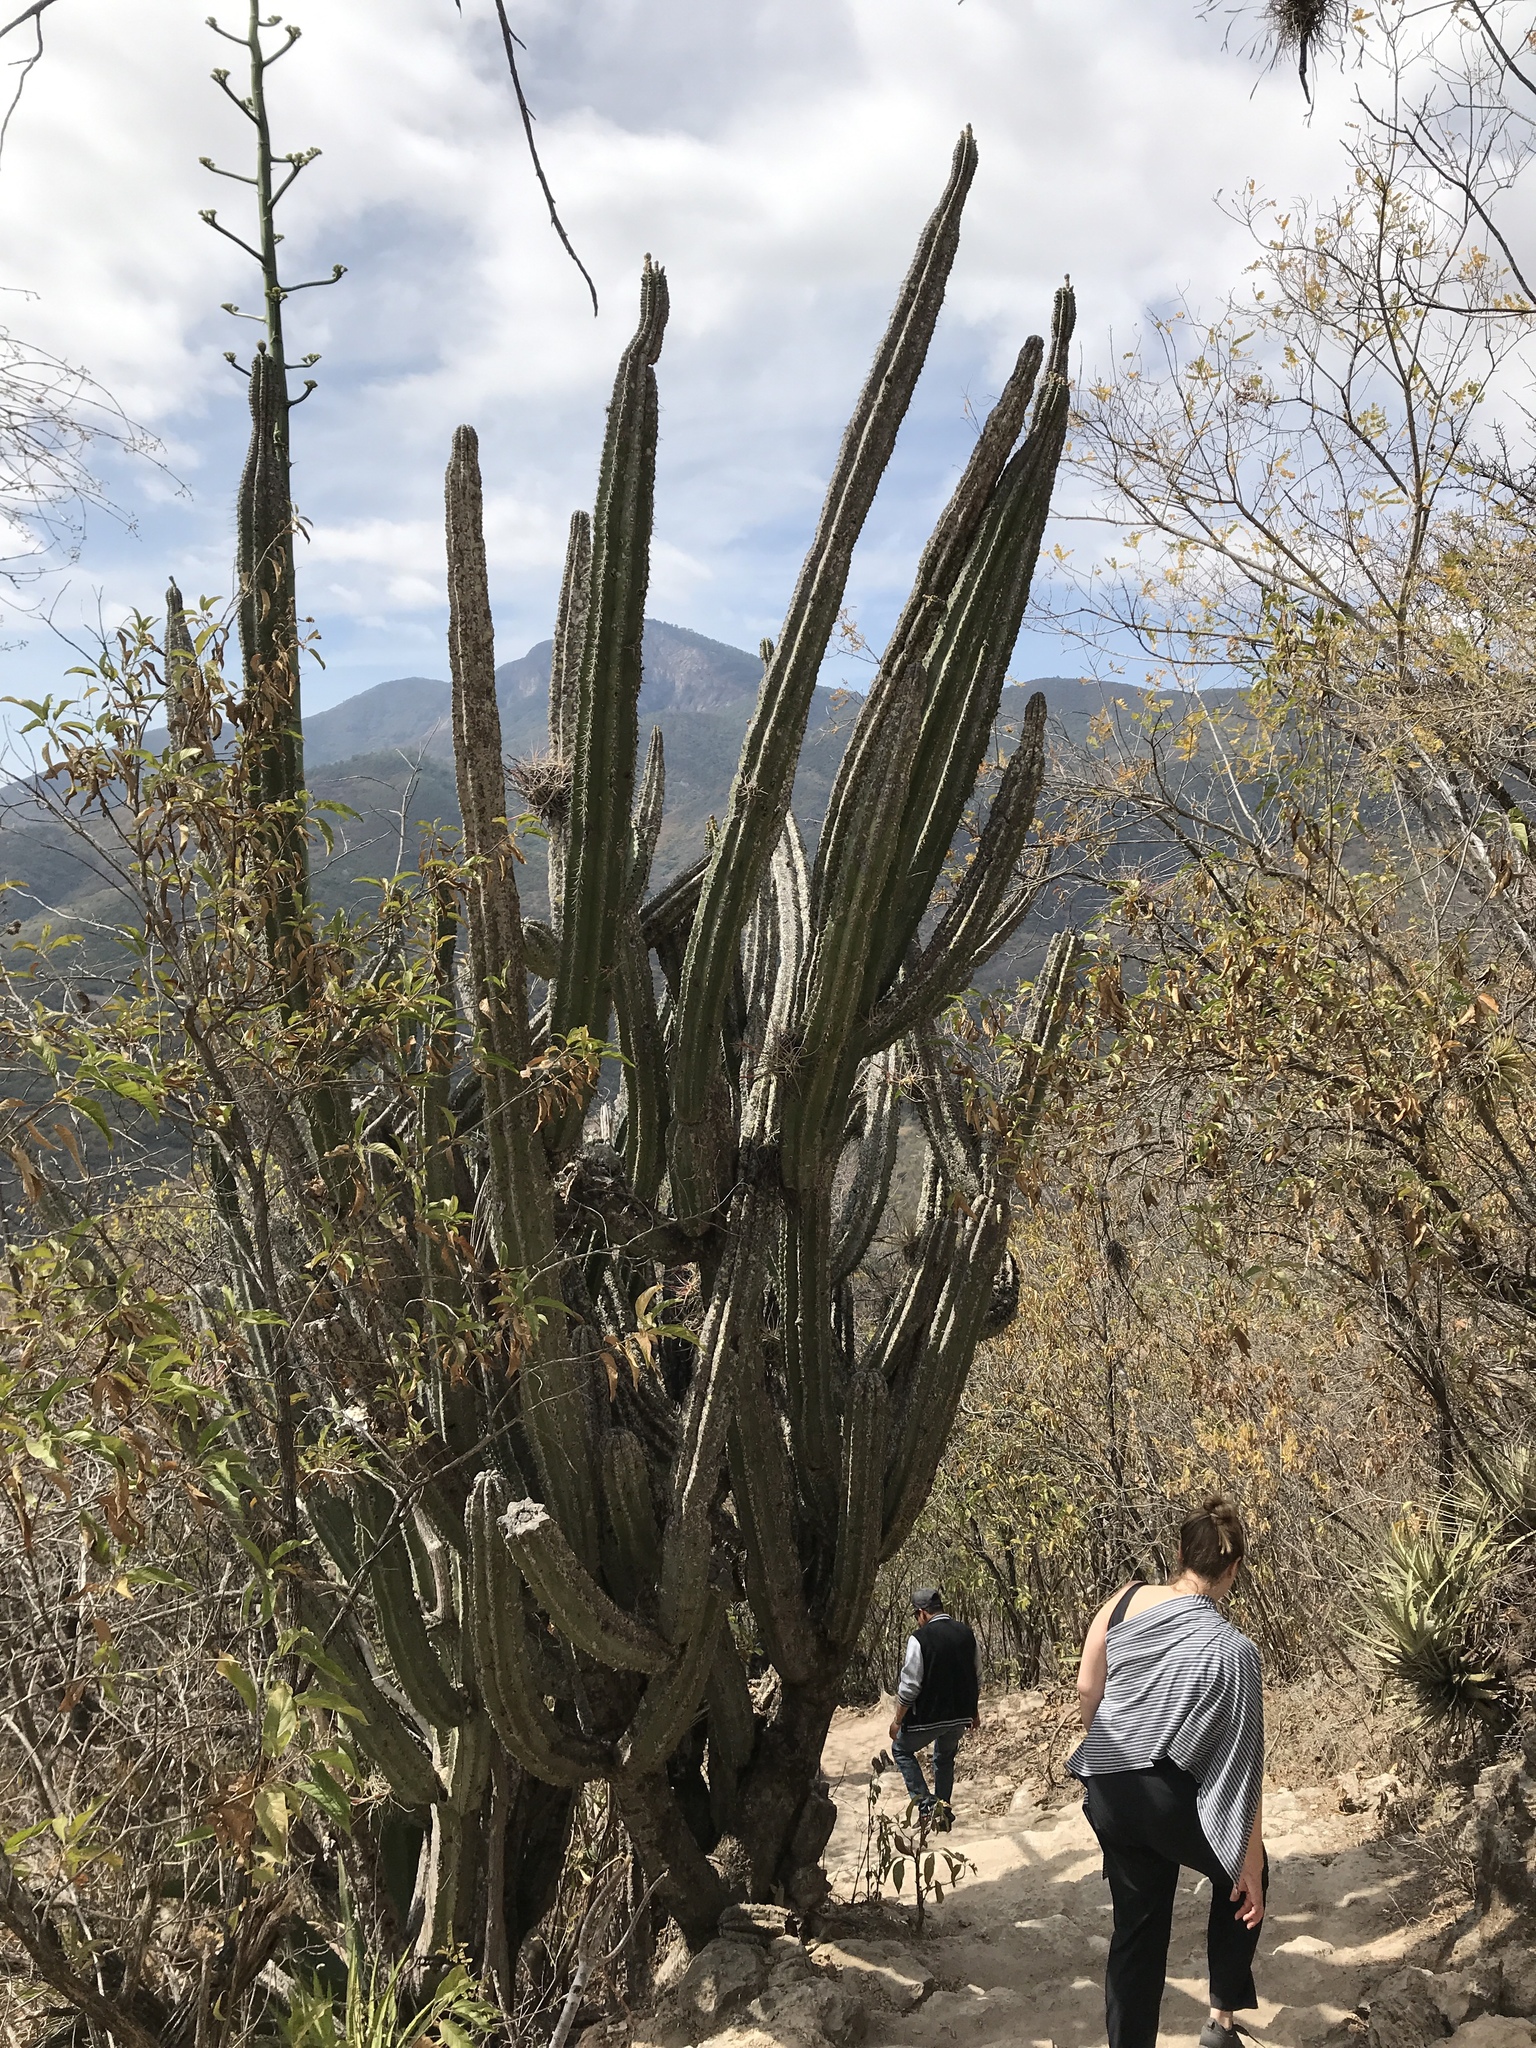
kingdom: Plantae
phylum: Tracheophyta
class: Magnoliopsida
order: Caryophyllales
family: Cactaceae
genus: Stenocereus
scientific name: Stenocereus pruinosus
